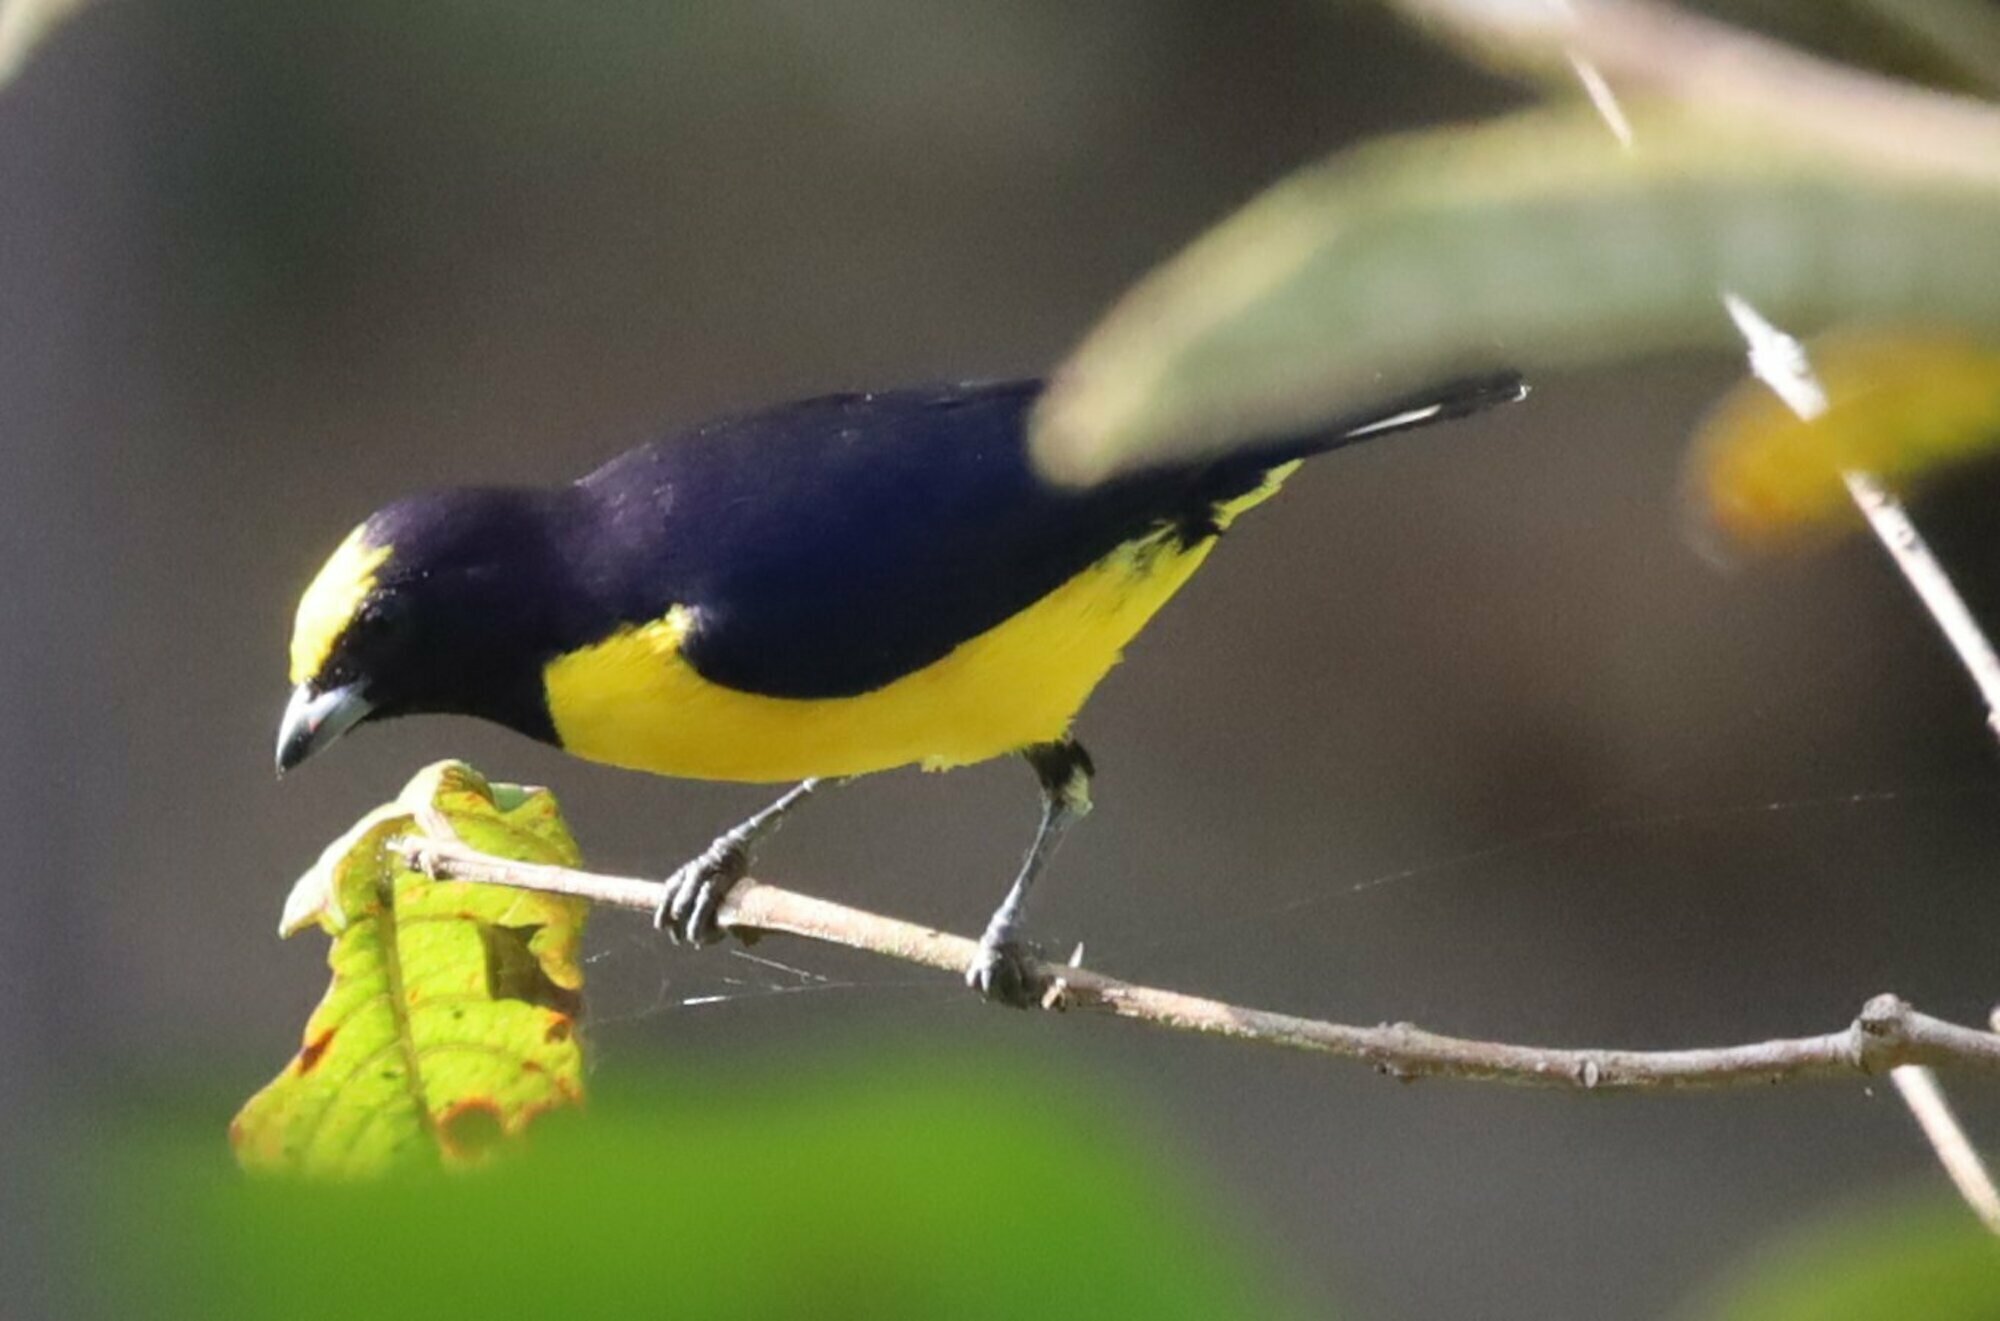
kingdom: Animalia
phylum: Chordata
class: Aves
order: Passeriformes
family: Fringillidae
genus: Euphonia
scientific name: Euphonia chlorotica
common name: Purple-throated euphonia
